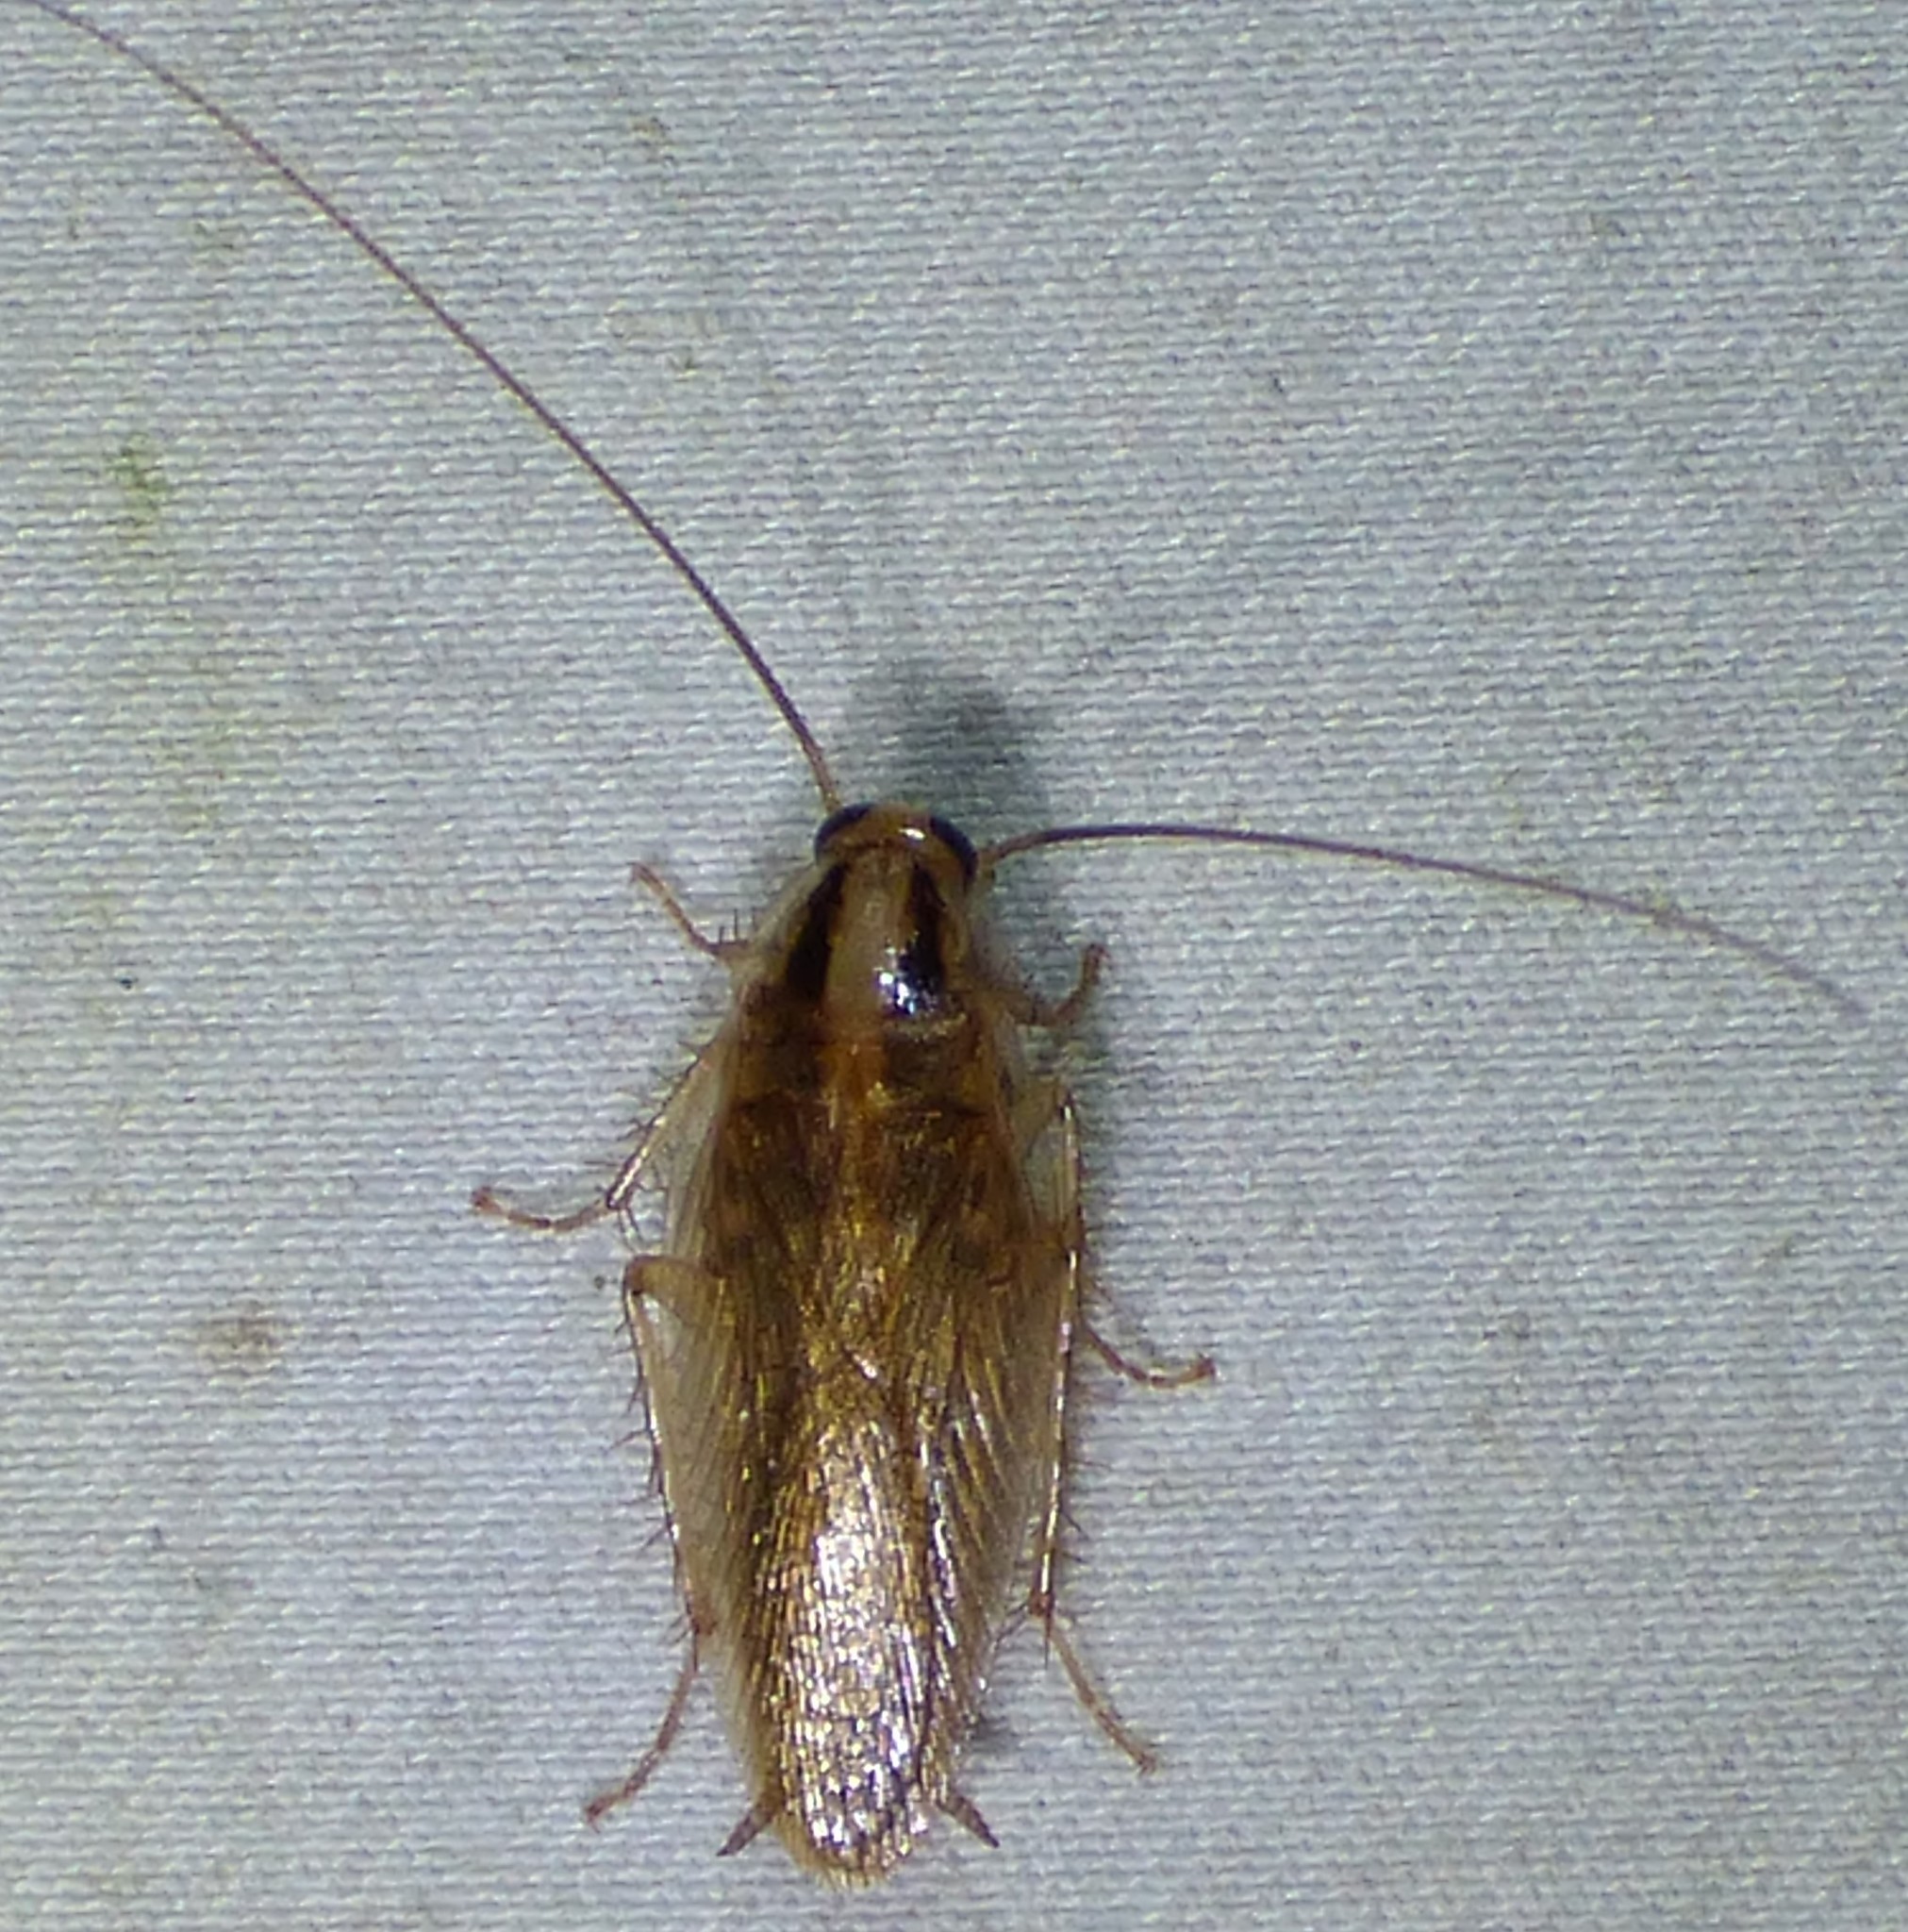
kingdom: Animalia
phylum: Arthropoda
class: Insecta
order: Blattodea
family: Ectobiidae
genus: Blattella
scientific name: Blattella germanica
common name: German cockroach
